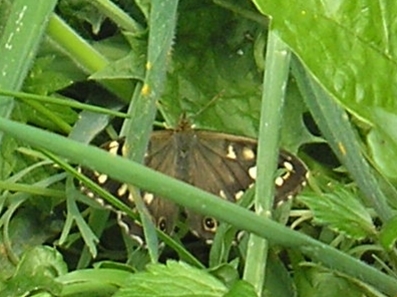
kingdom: Animalia
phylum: Arthropoda
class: Insecta
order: Lepidoptera
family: Nymphalidae
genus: Pararge
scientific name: Pararge aegeria
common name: Speckled wood
